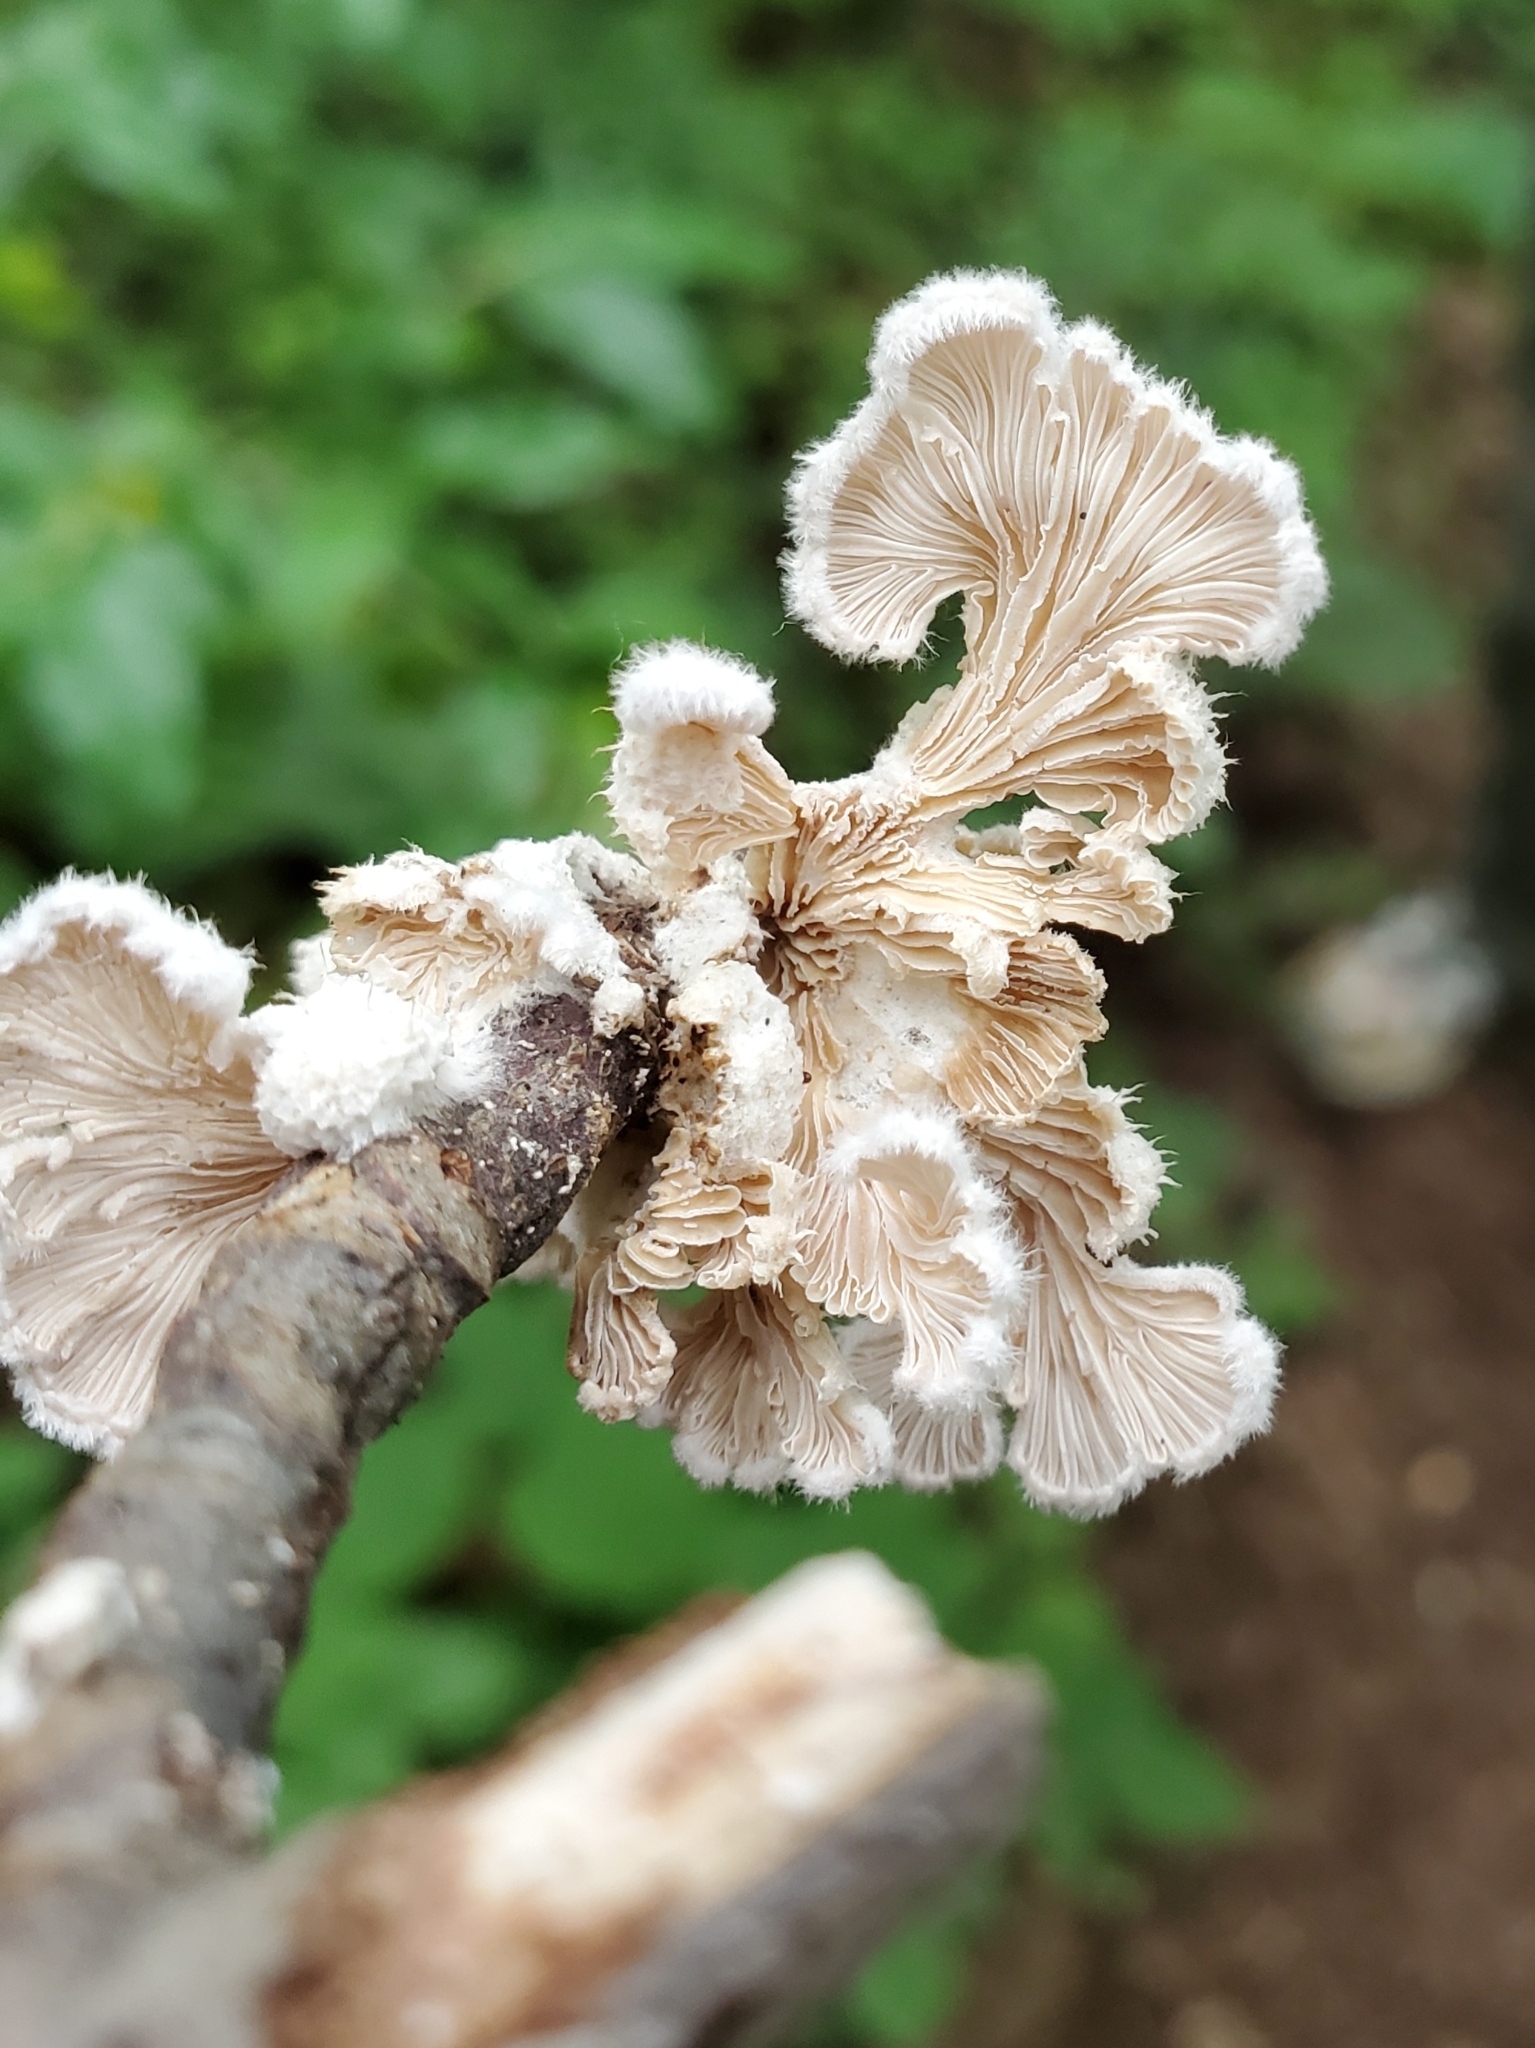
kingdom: Fungi
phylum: Basidiomycota
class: Agaricomycetes
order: Agaricales
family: Schizophyllaceae
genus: Schizophyllum
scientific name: Schizophyllum commune
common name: Common porecrust
